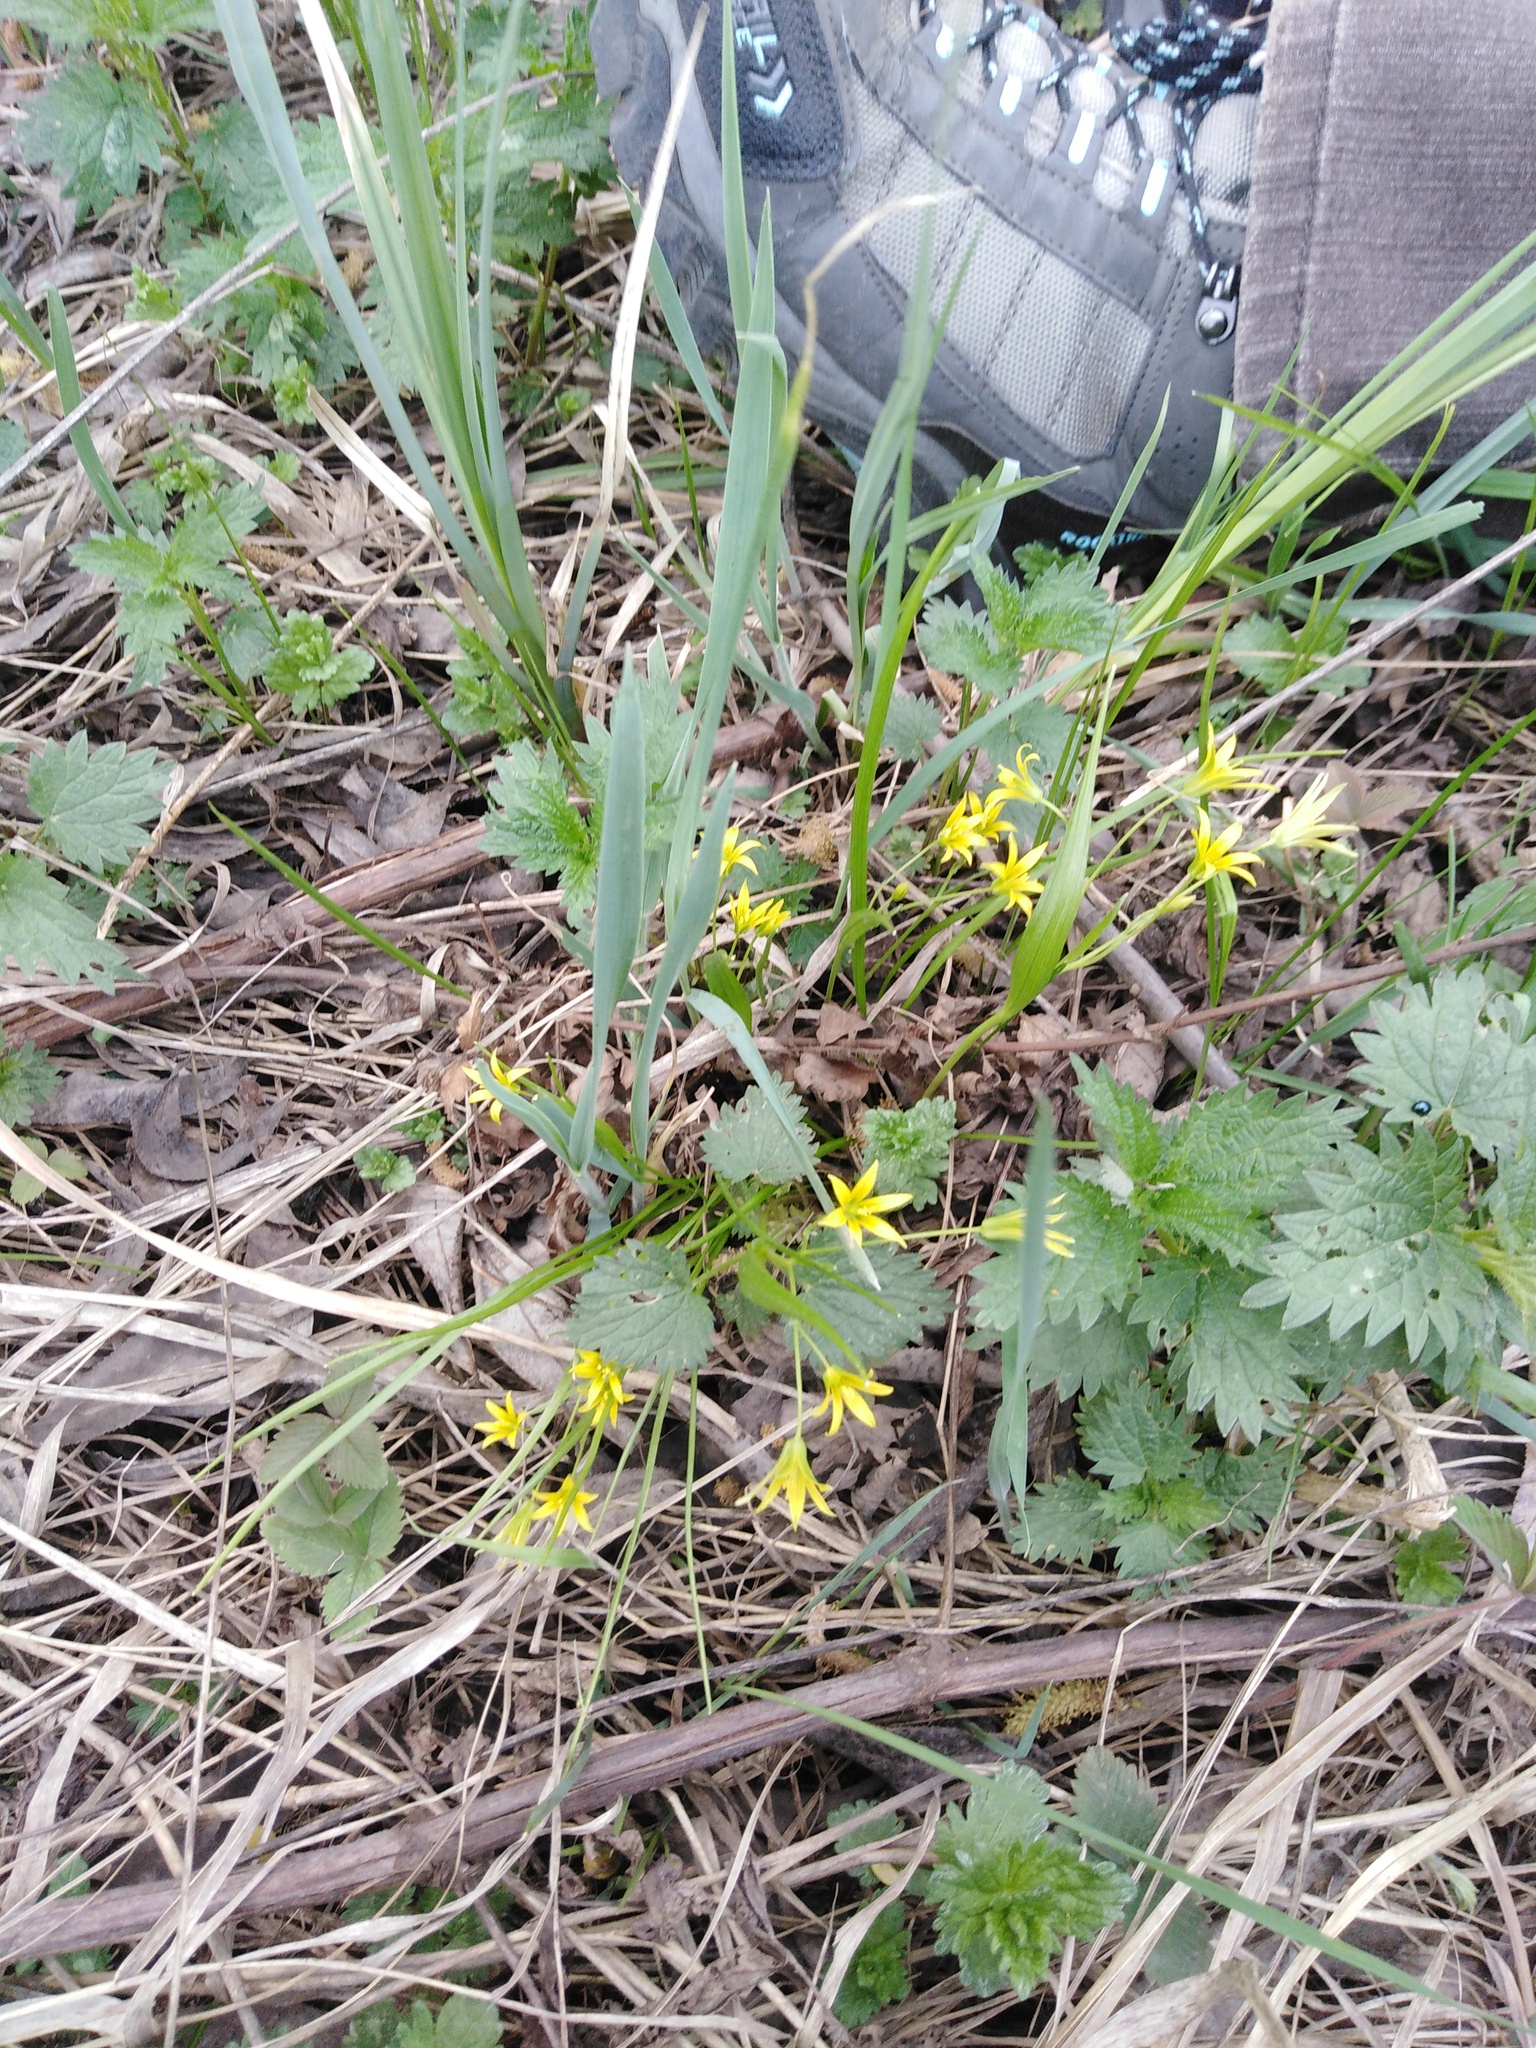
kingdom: Plantae
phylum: Tracheophyta
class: Liliopsida
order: Liliales
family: Liliaceae
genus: Gagea
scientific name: Gagea minima
